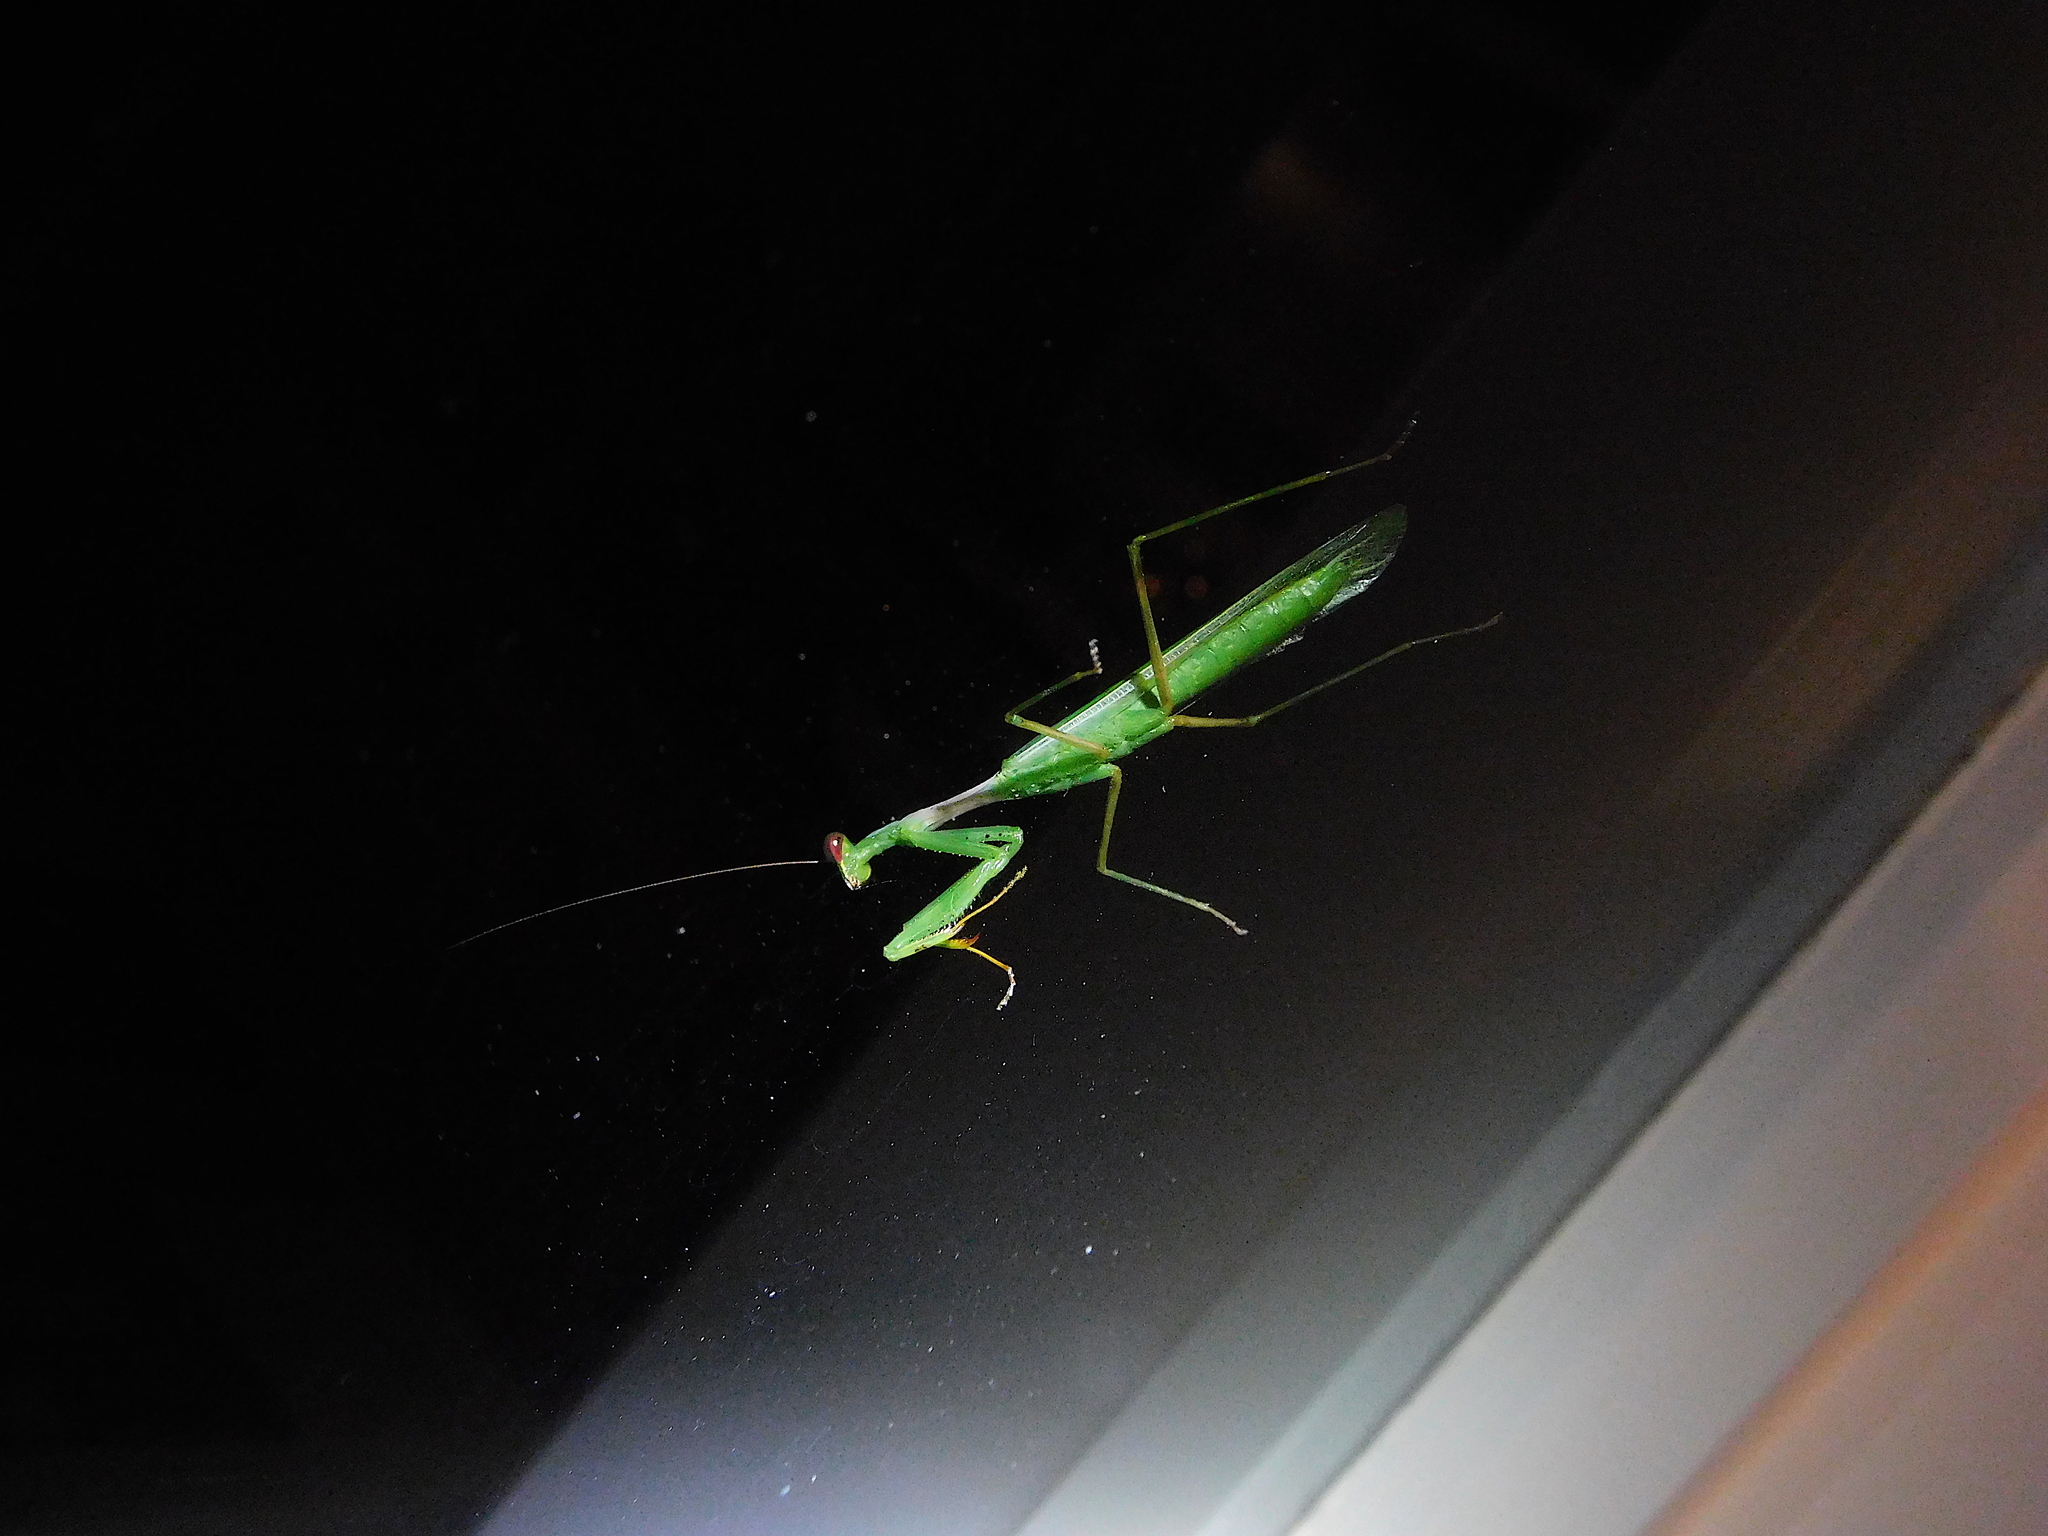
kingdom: Animalia
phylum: Arthropoda
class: Insecta
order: Mantodea
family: Miomantidae
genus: Miomantis
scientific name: Miomantis caffra
